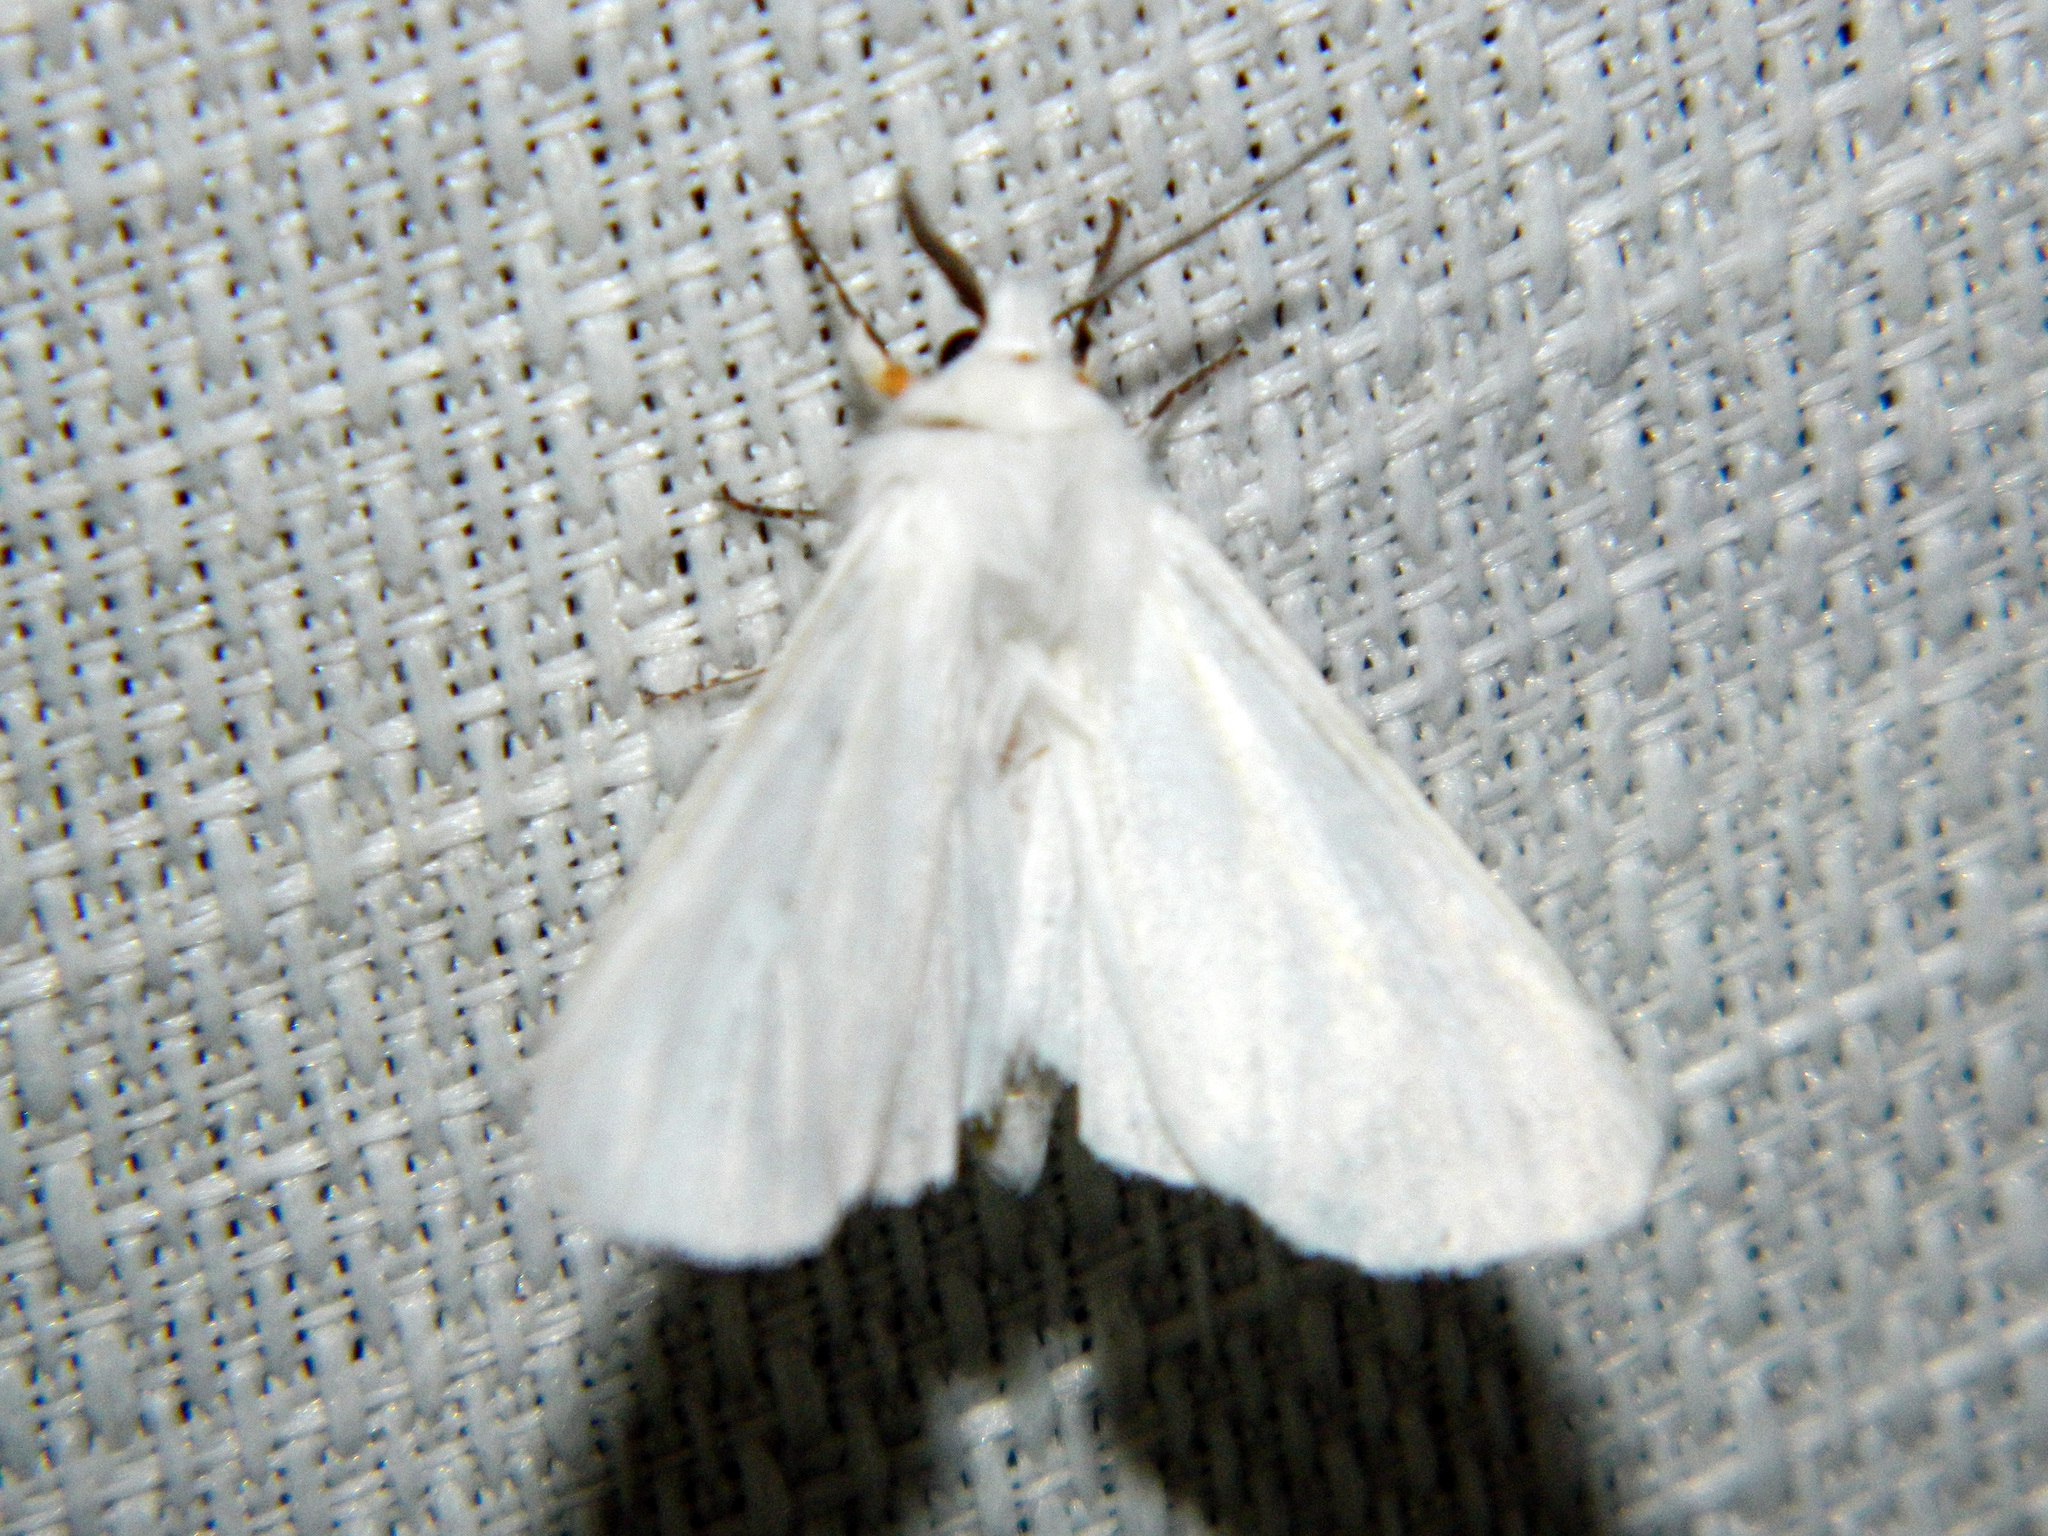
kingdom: Animalia
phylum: Arthropoda
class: Insecta
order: Lepidoptera
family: Erebidae
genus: Hyphantria
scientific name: Hyphantria cunea
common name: American white moth
